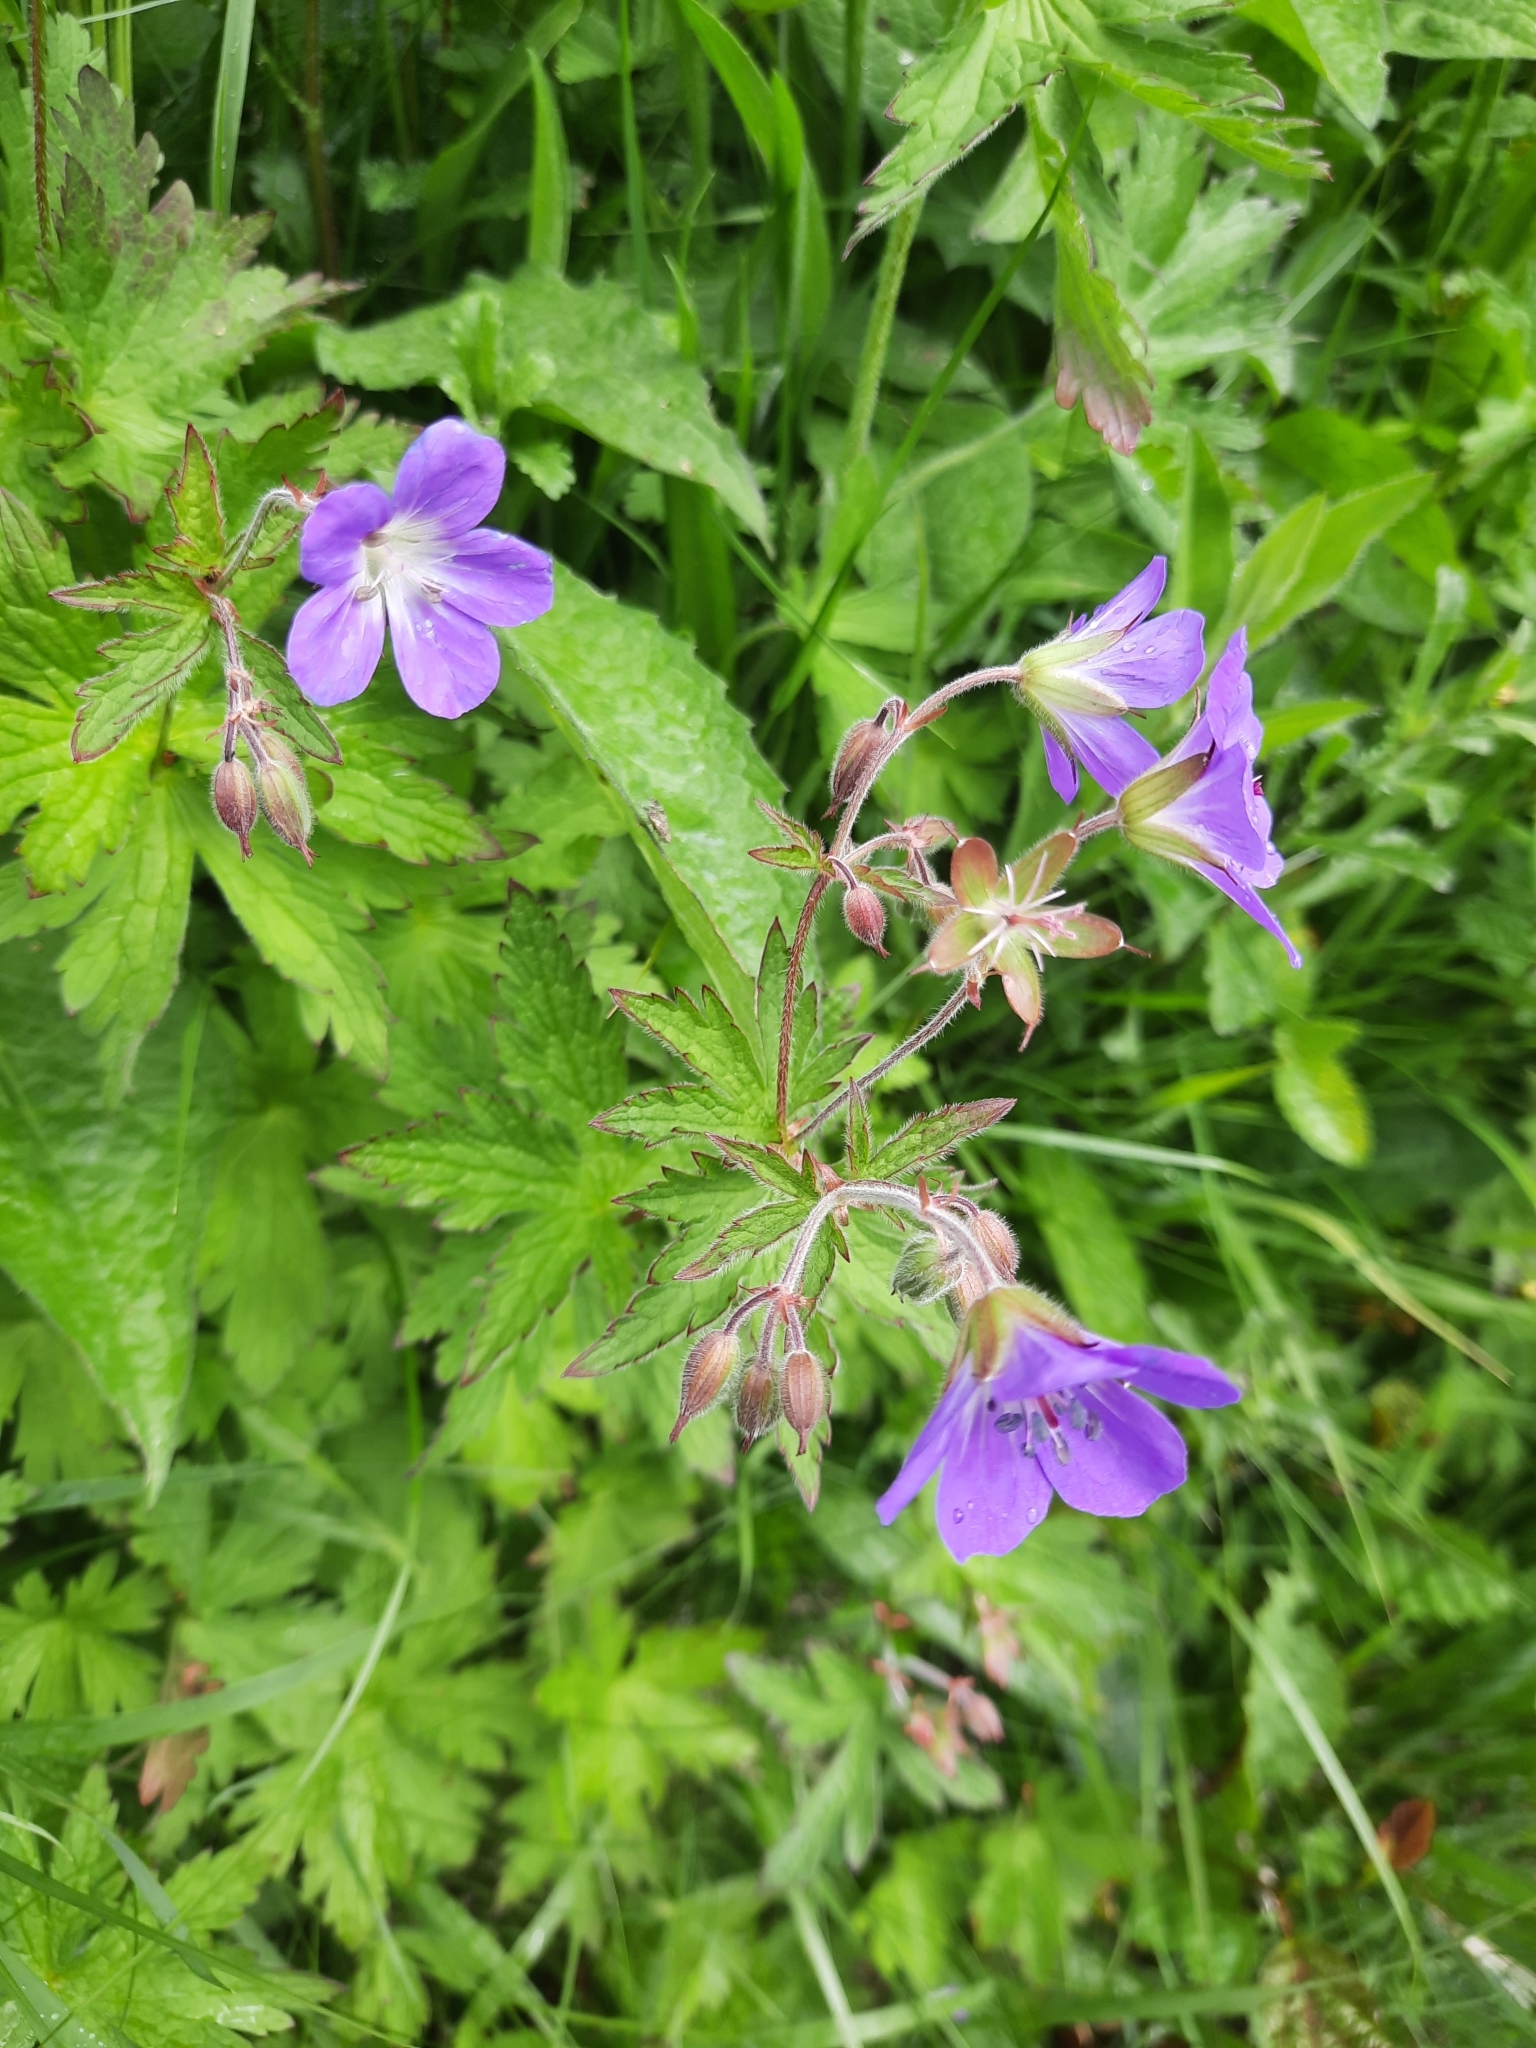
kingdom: Plantae
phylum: Tracheophyta
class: Magnoliopsida
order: Geraniales
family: Geraniaceae
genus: Geranium
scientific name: Geranium sylvaticum
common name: Wood crane's-bill
